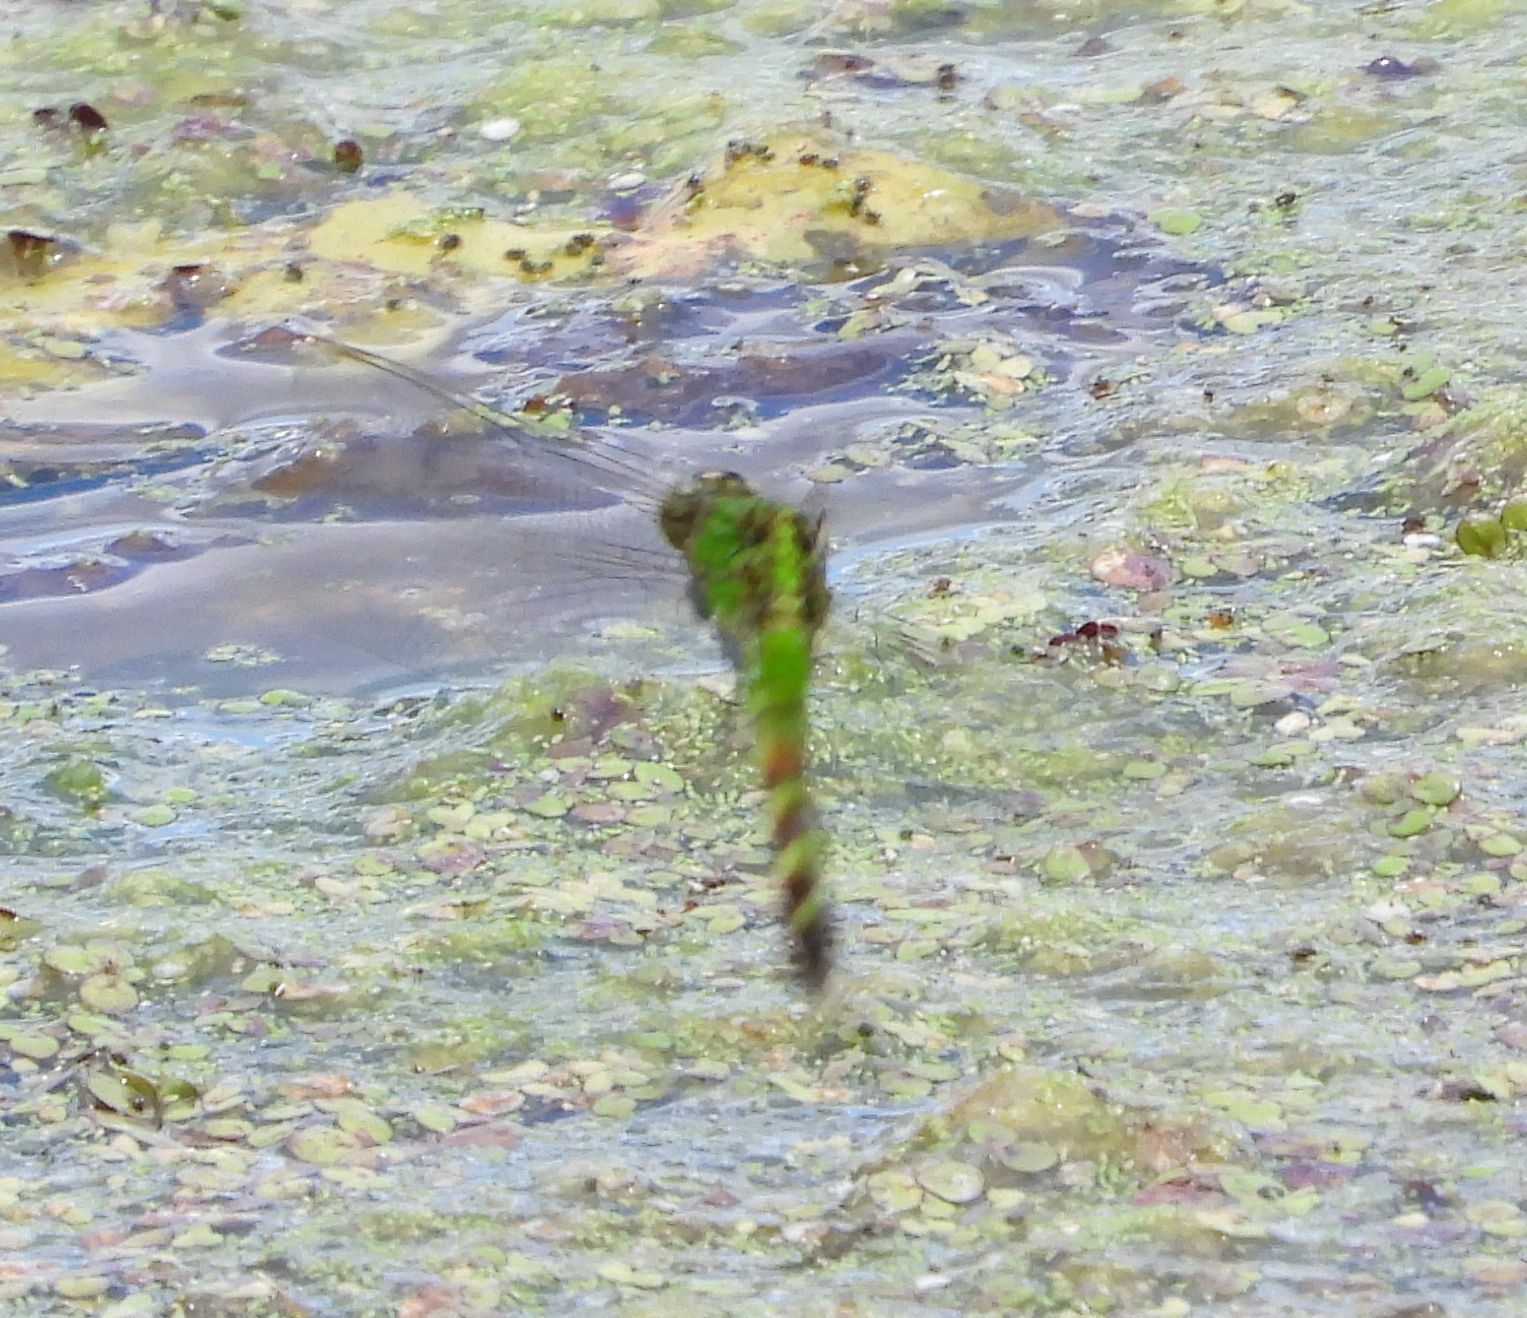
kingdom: Animalia
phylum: Arthropoda
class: Insecta
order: Odonata
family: Libellulidae
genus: Erythemis
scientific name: Erythemis simplicicollis
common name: Eastern pondhawk
